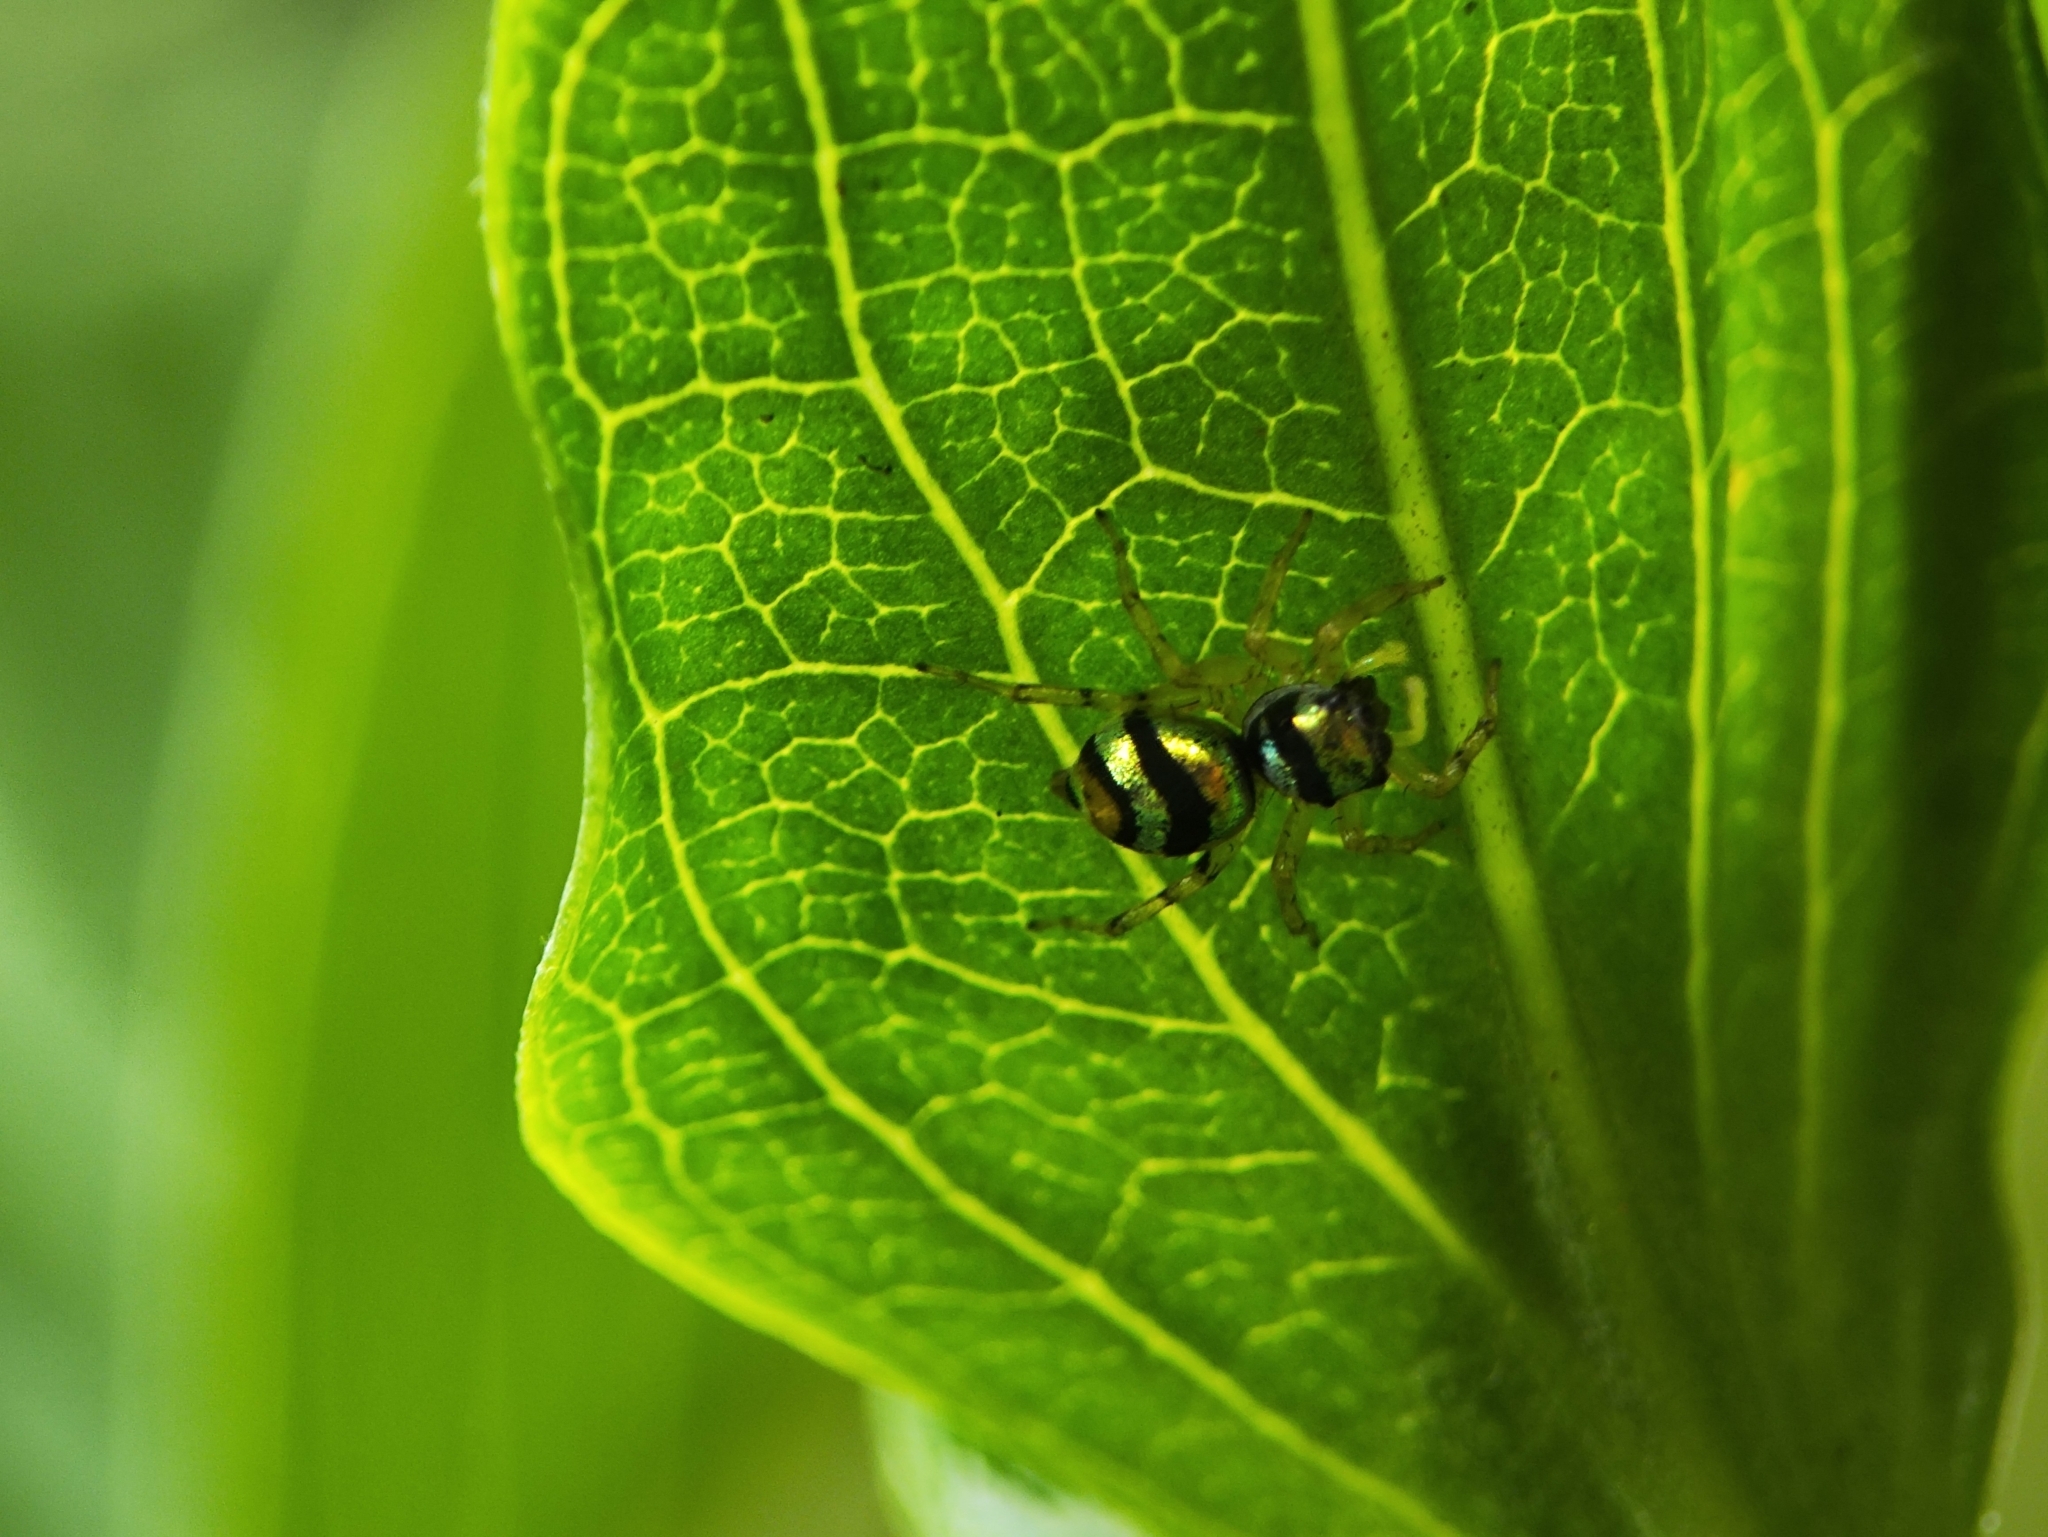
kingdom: Animalia
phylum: Arthropoda
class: Arachnida
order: Araneae
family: Salticidae
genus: Phintella
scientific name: Phintella vittata
